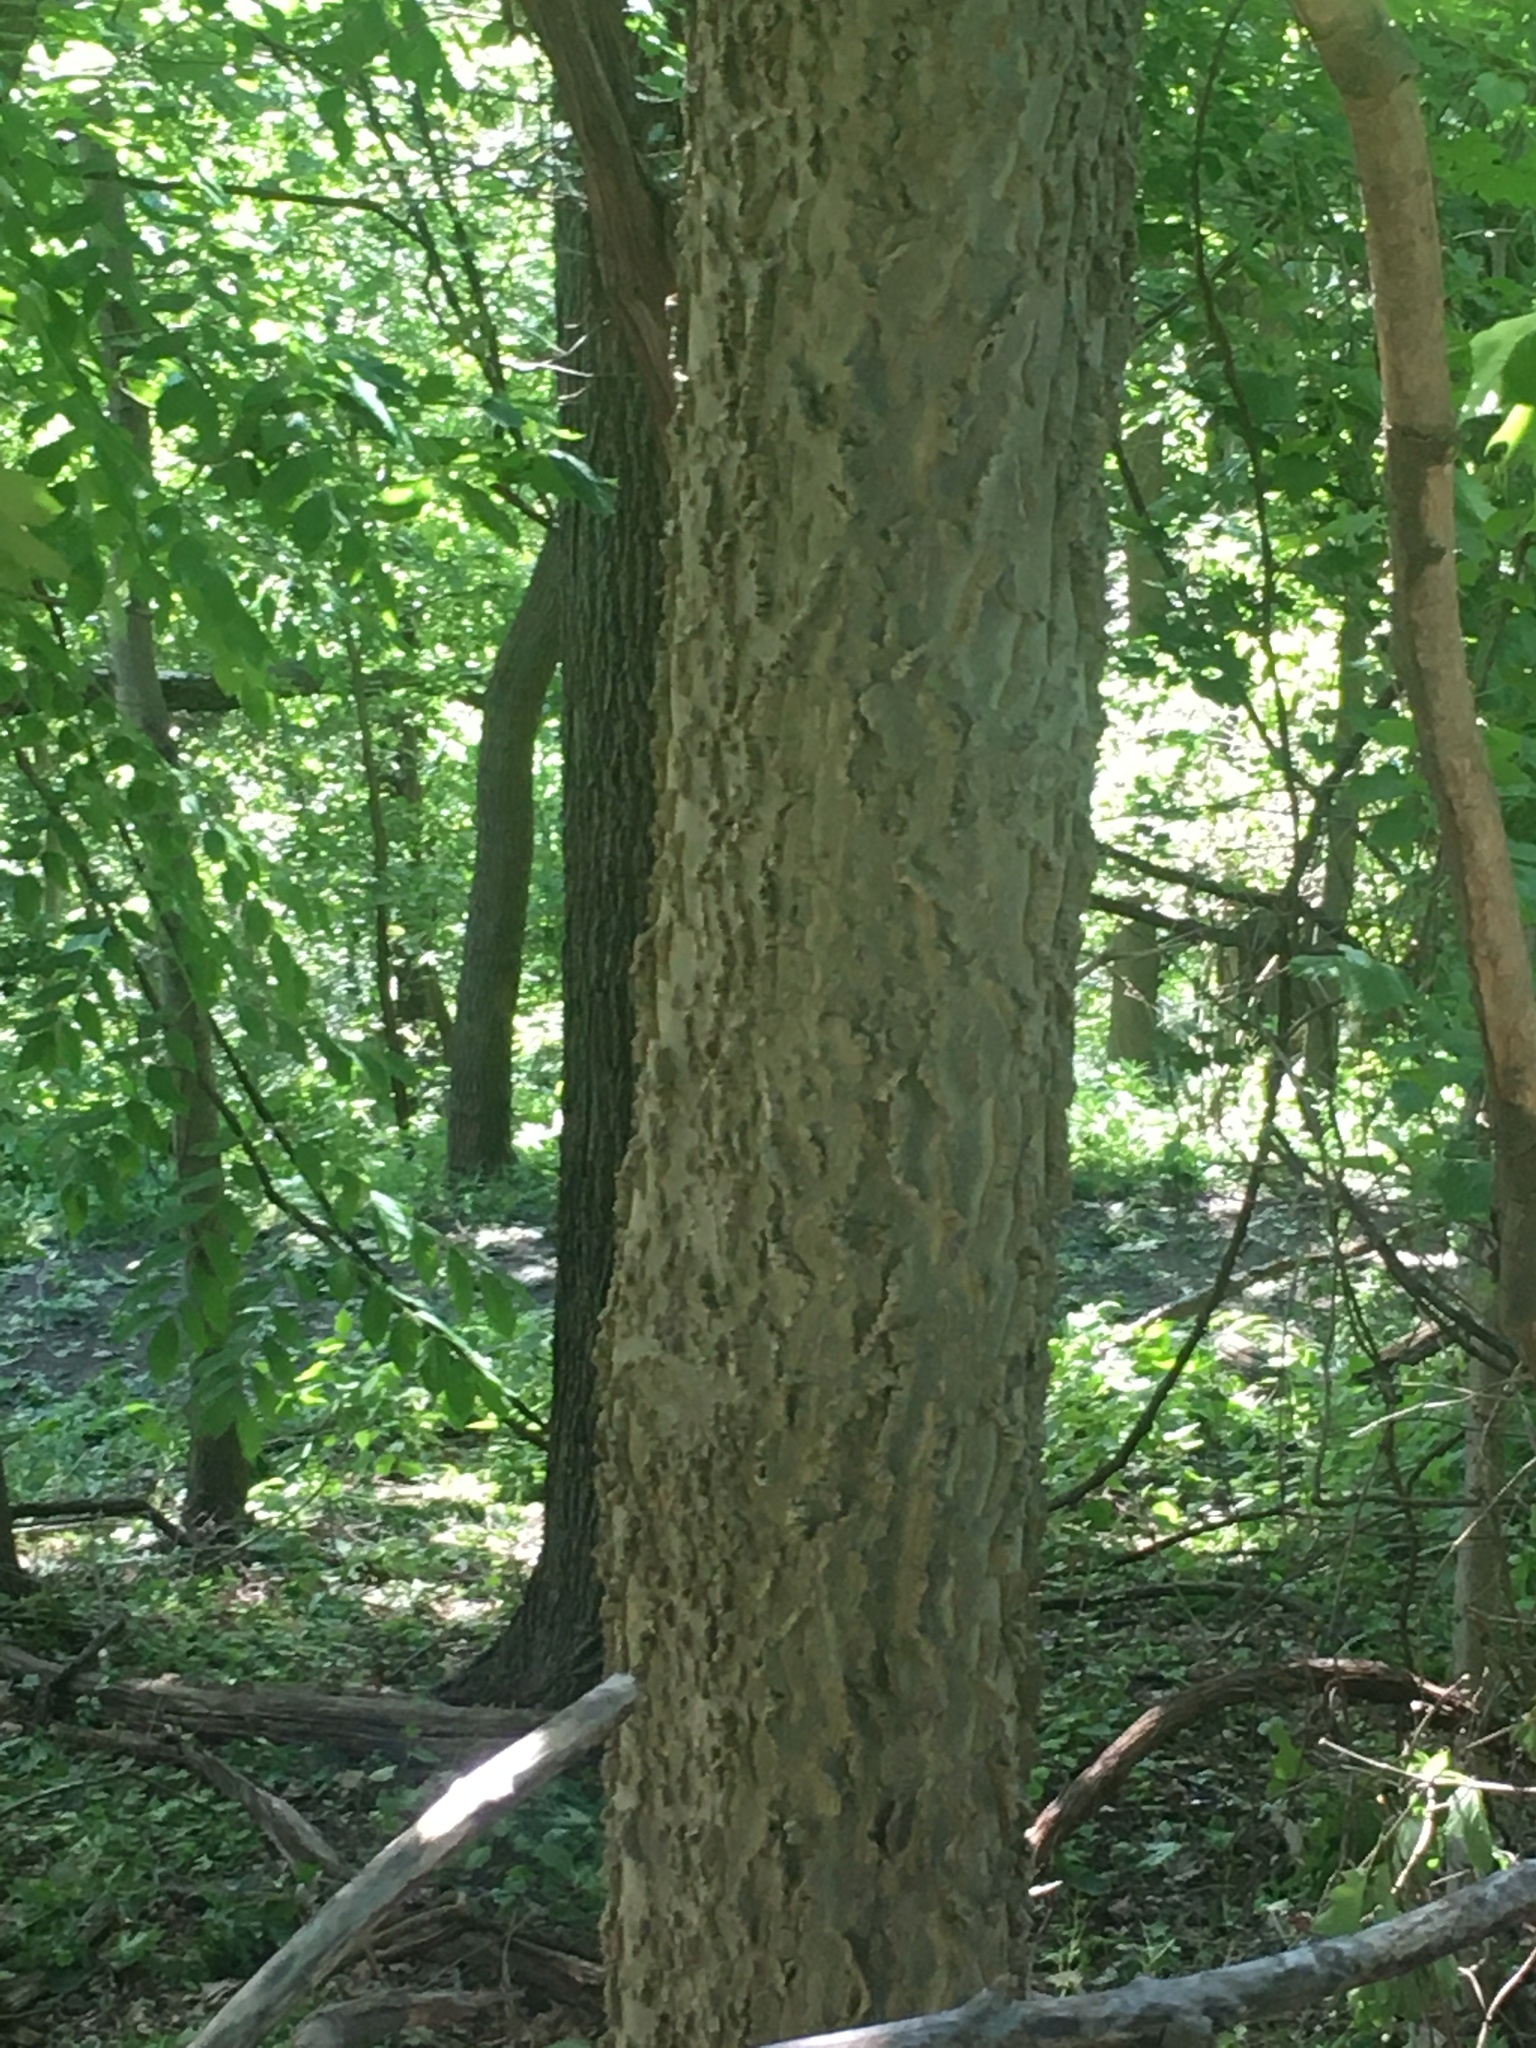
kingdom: Plantae
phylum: Tracheophyta
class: Magnoliopsida
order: Rosales
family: Cannabaceae
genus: Celtis
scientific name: Celtis occidentalis
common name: Common hackberry
